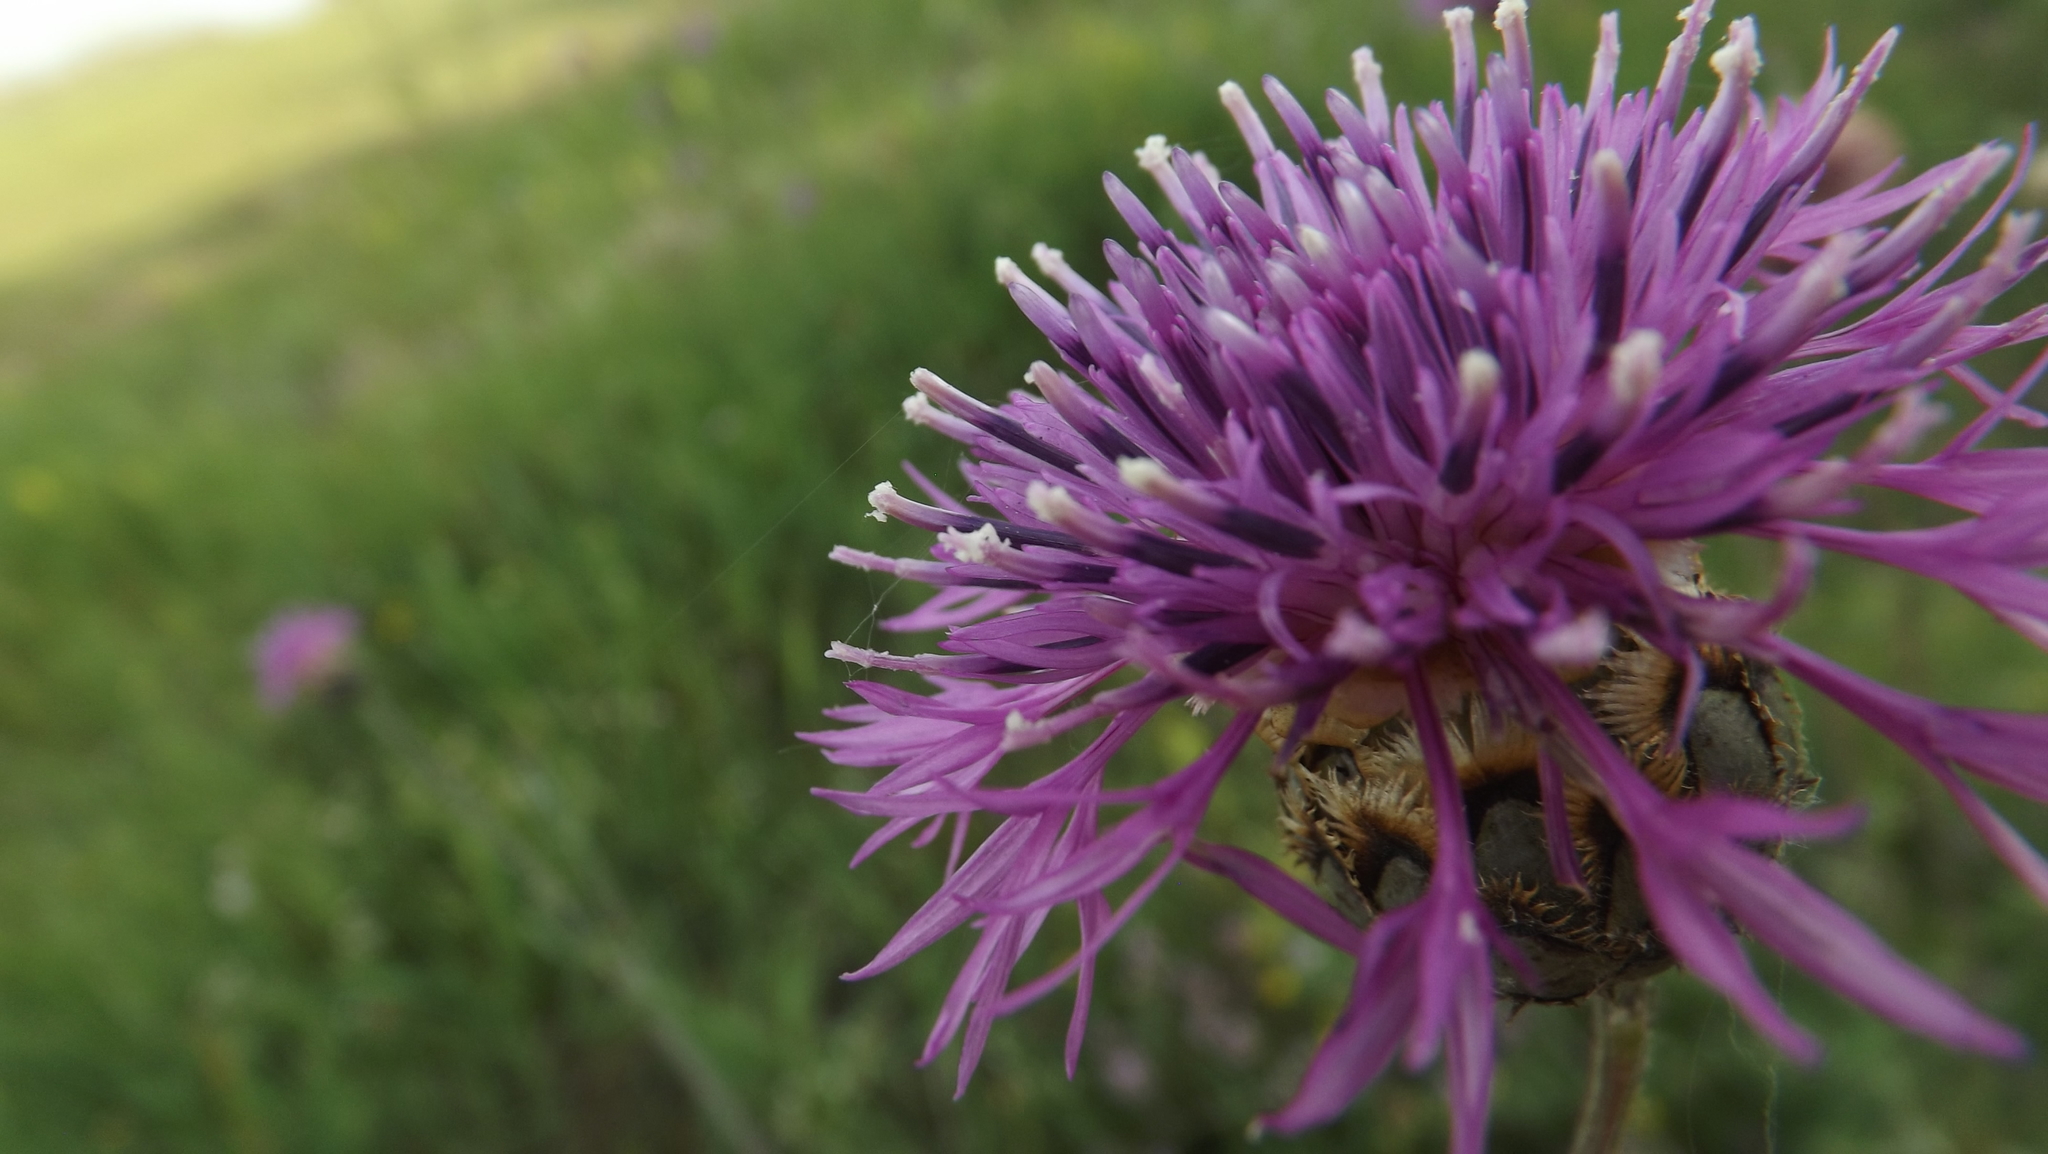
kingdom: Plantae
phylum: Tracheophyta
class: Magnoliopsida
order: Asterales
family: Asteraceae
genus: Centaurea
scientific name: Centaurea scabiosa
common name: Greater knapweed
